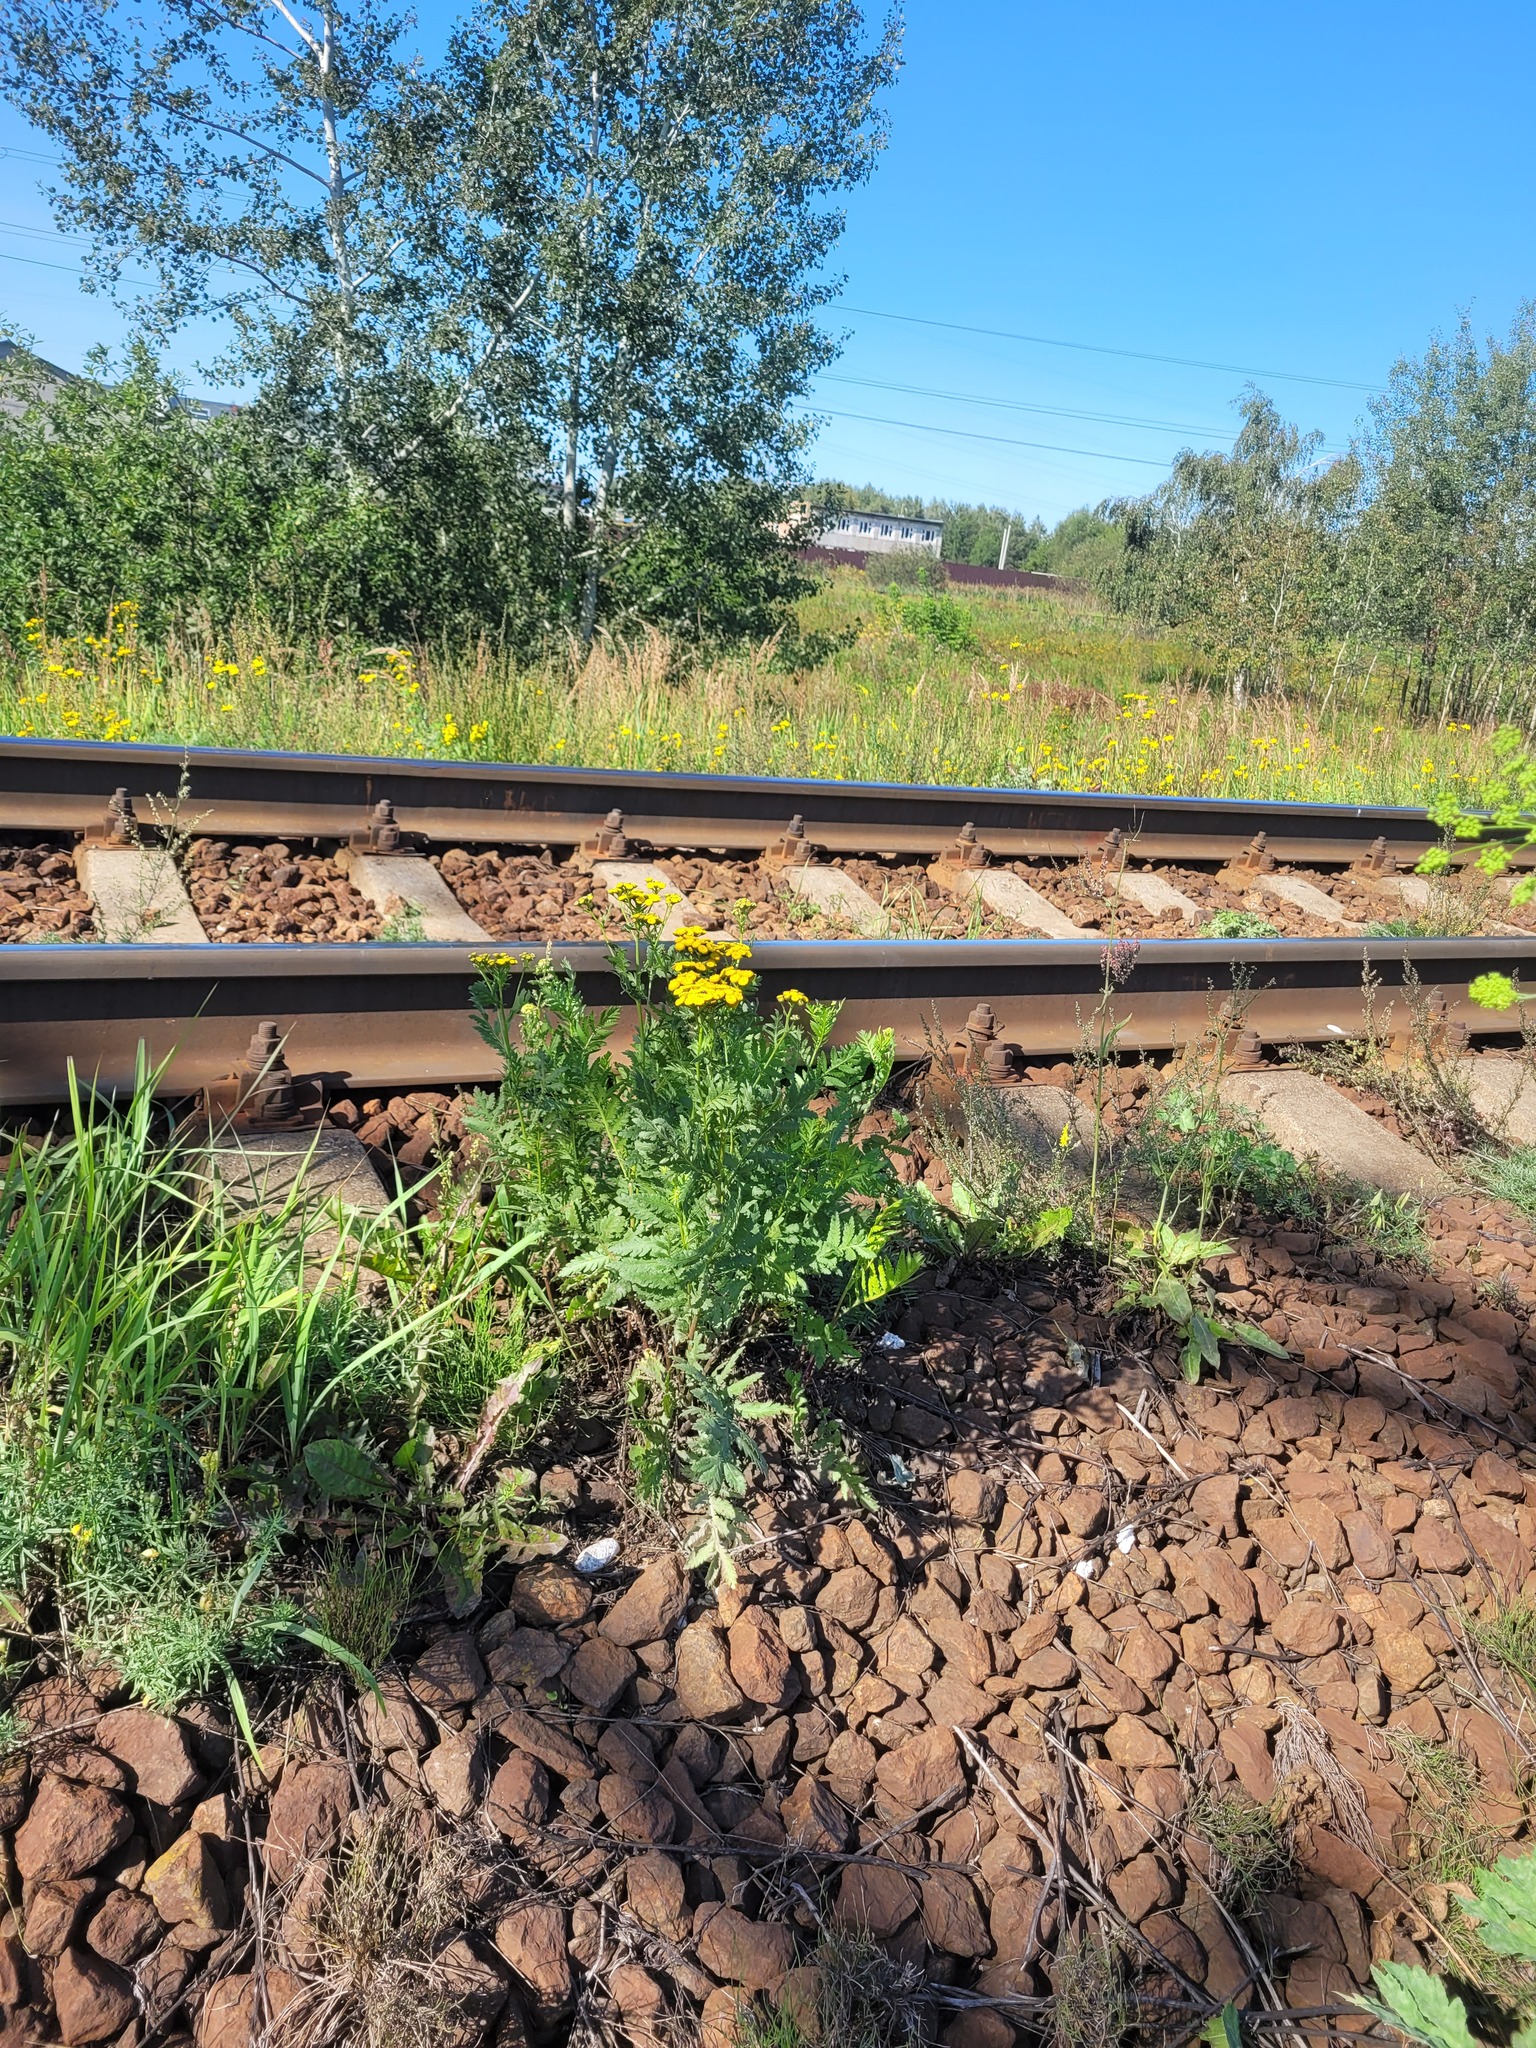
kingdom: Plantae
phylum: Tracheophyta
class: Magnoliopsida
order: Asterales
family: Asteraceae
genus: Tanacetum
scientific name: Tanacetum vulgare
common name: Common tansy
